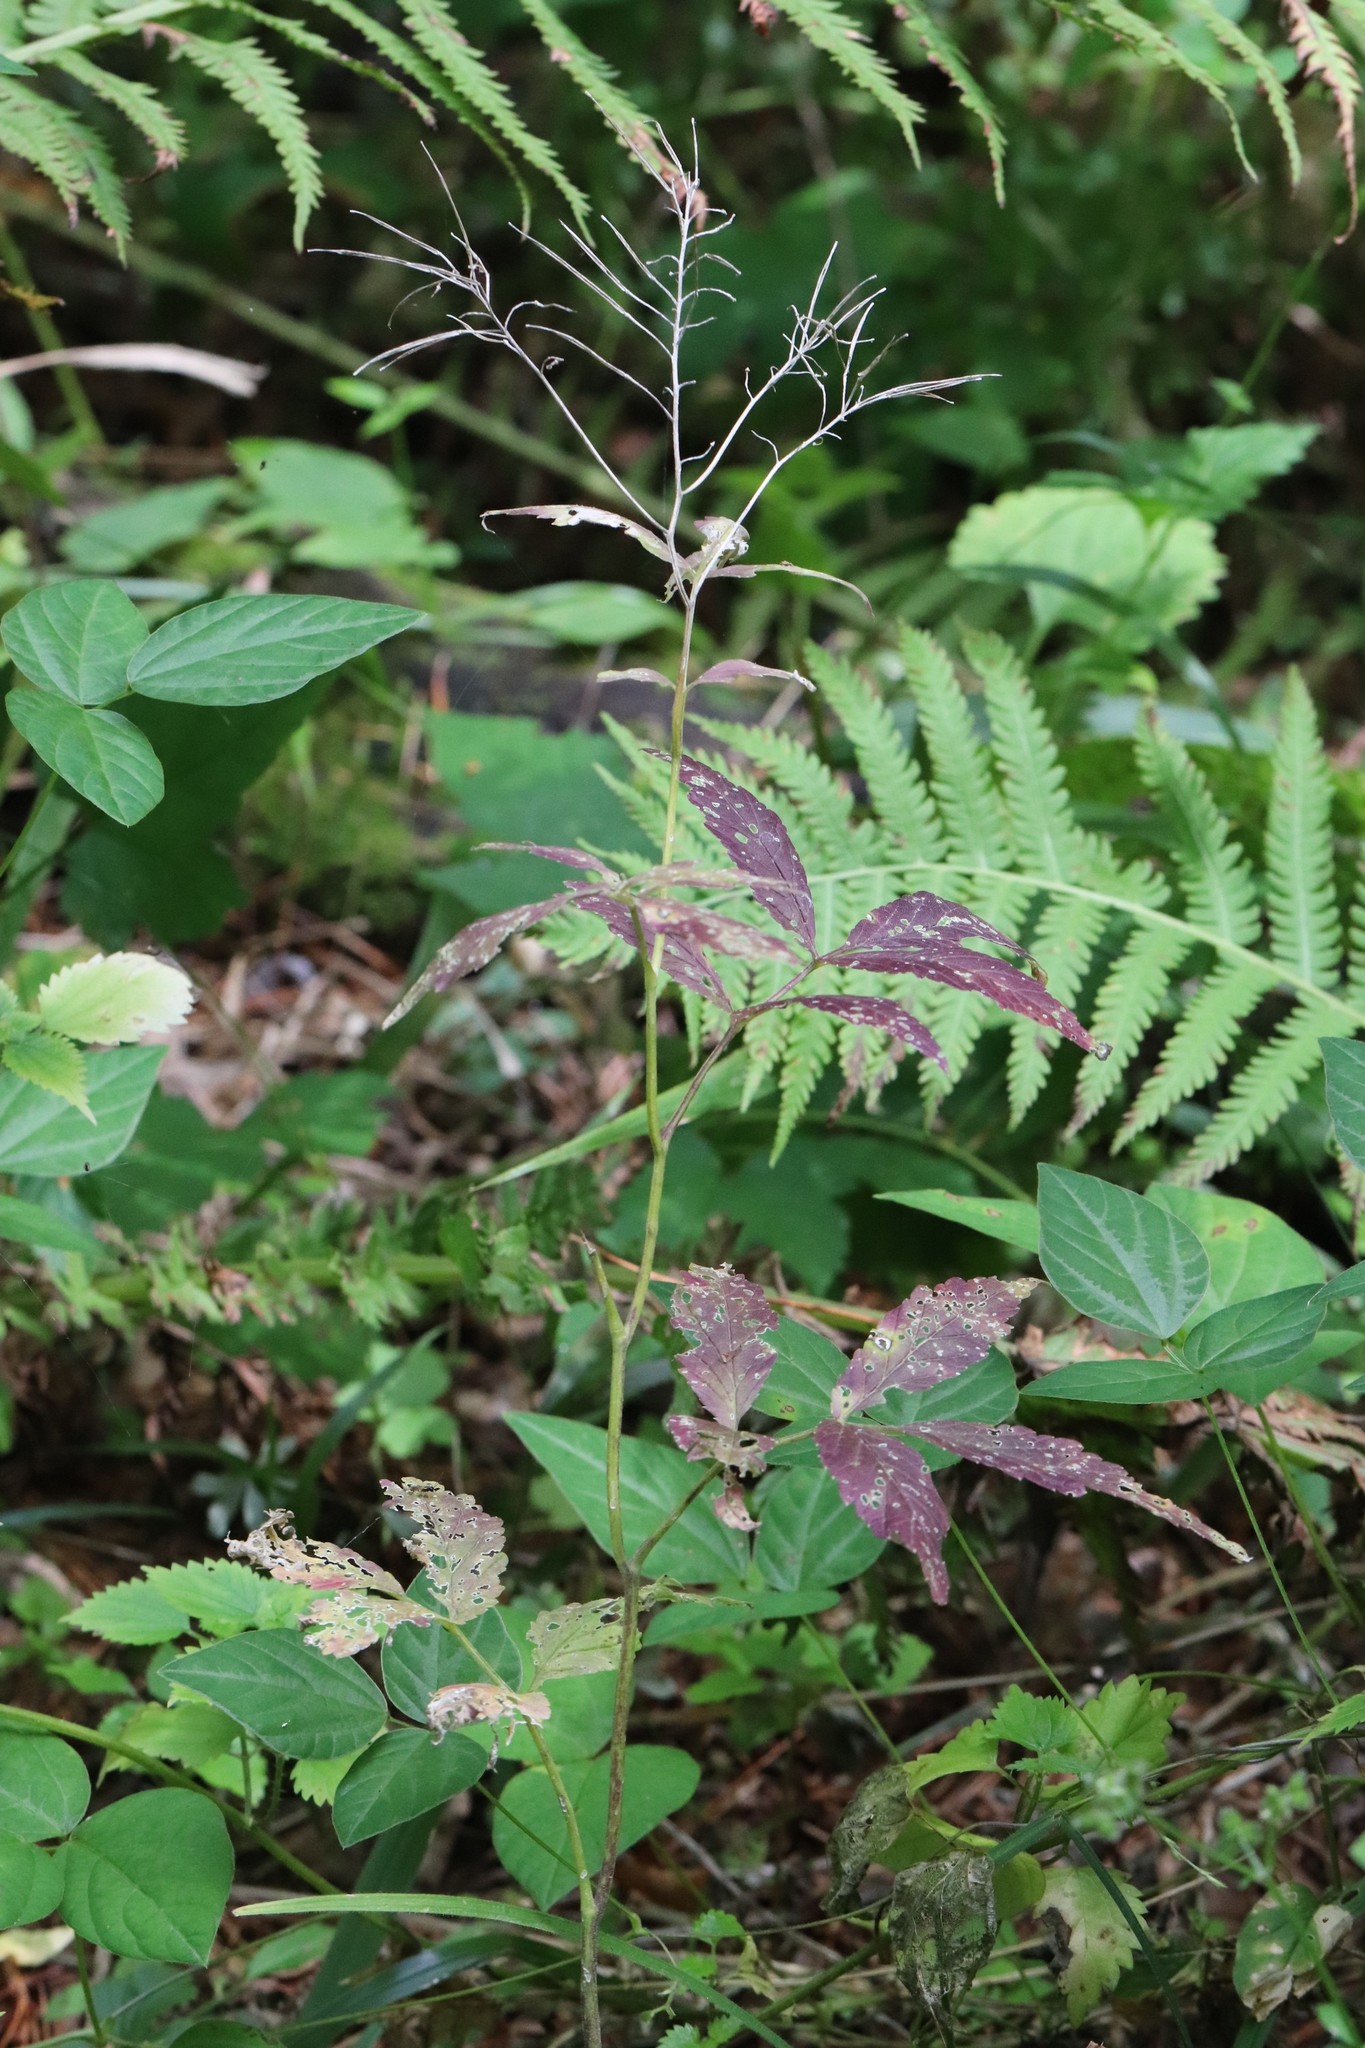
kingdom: Plantae
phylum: Tracheophyta
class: Magnoliopsida
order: Brassicales
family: Brassicaceae
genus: Cardamine
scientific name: Cardamine leucantha
